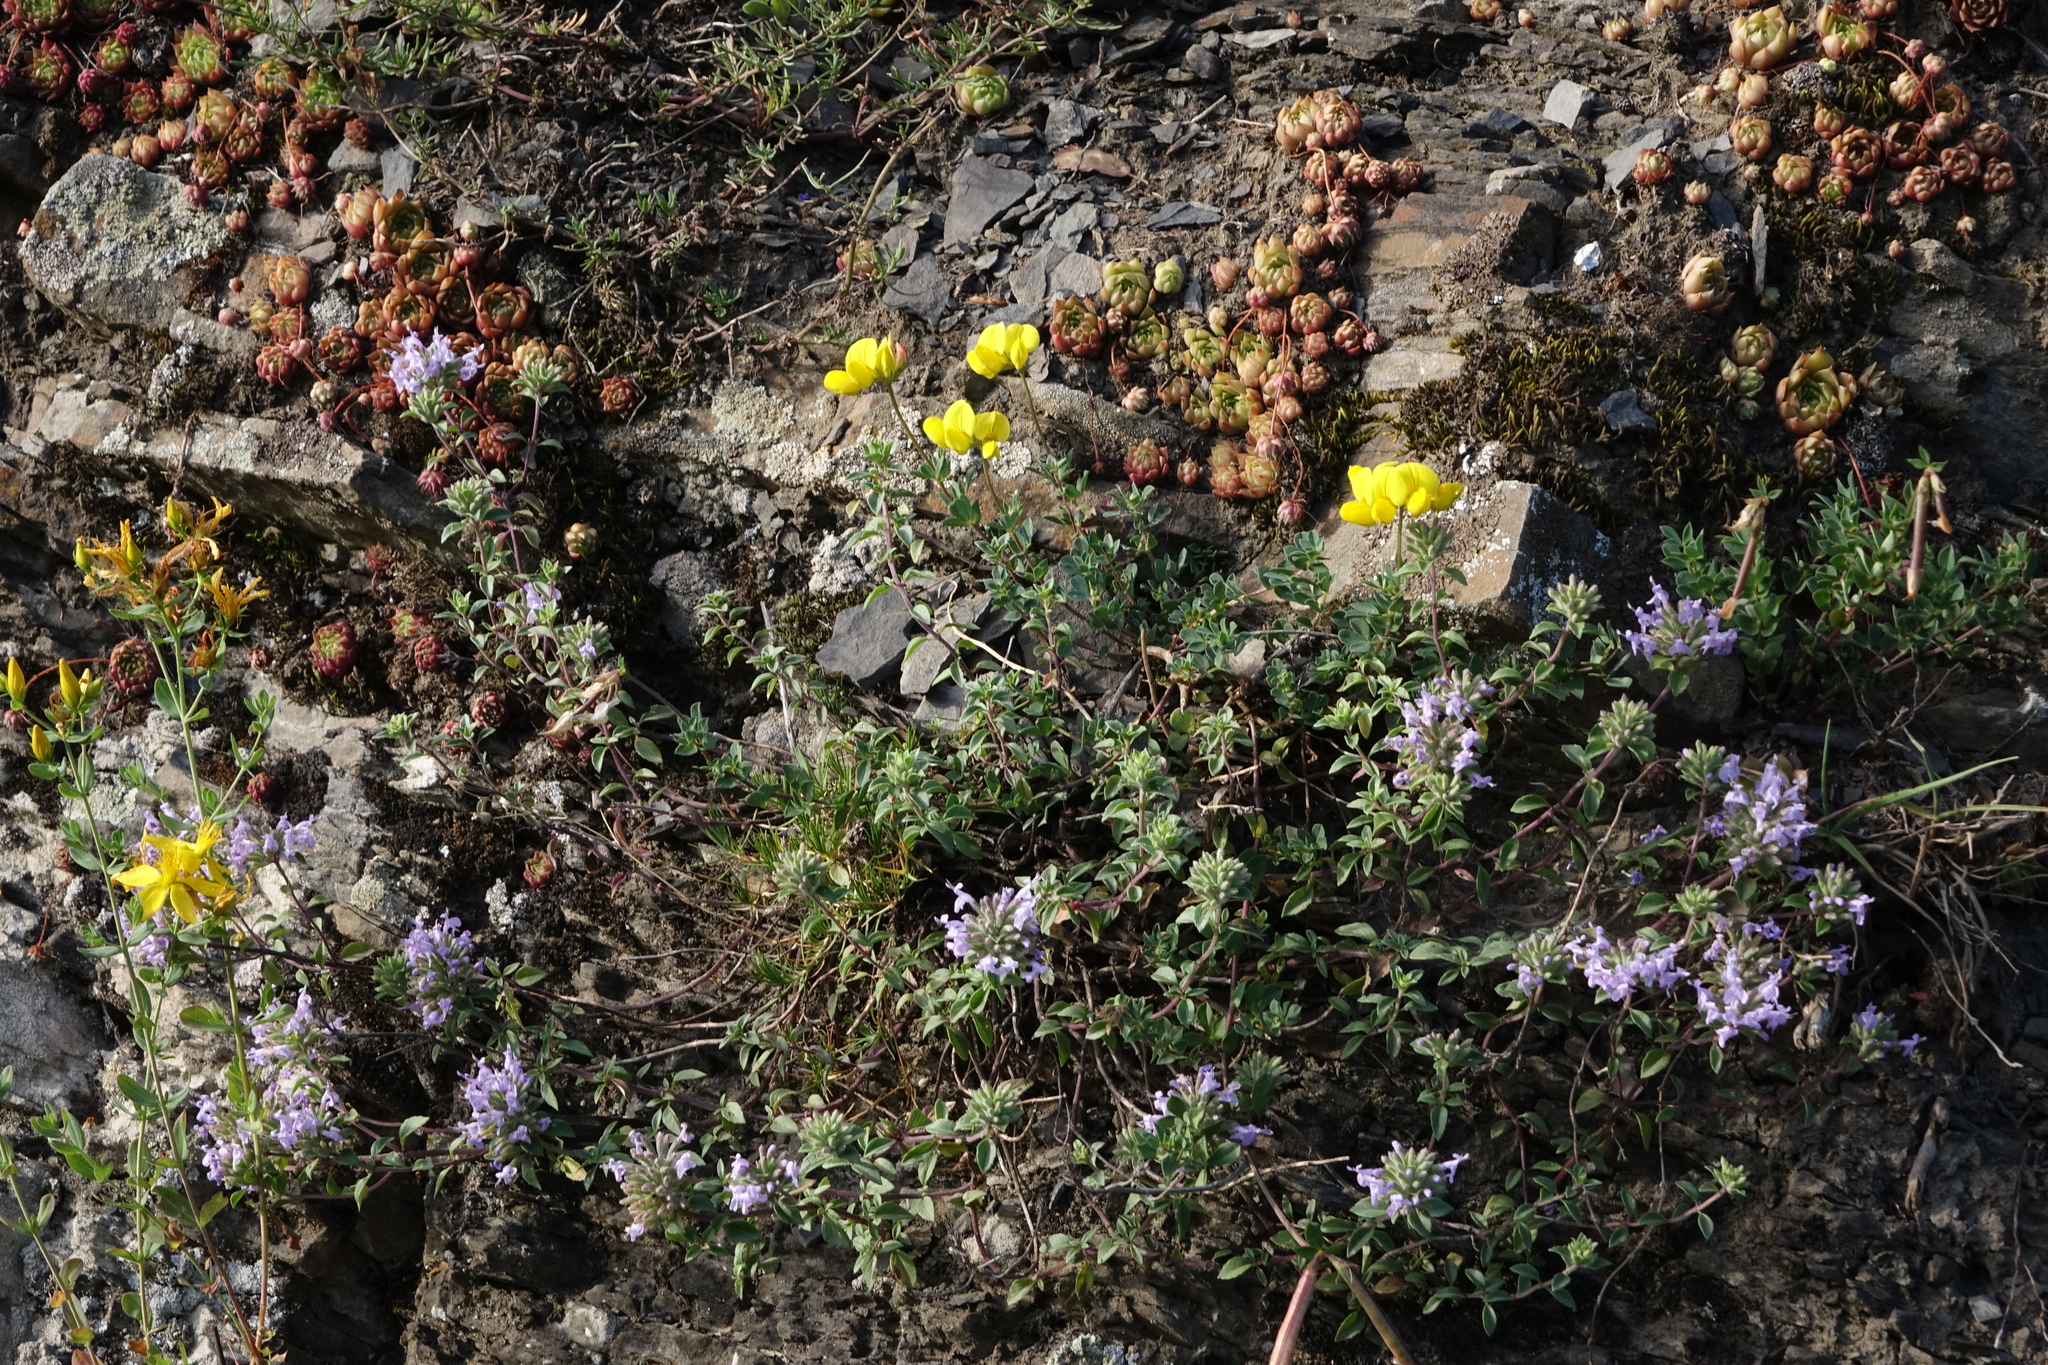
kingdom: Plantae
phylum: Tracheophyta
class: Magnoliopsida
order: Lamiales
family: Lamiaceae
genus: Ziziphora
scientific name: Ziziphora clinopodioides
